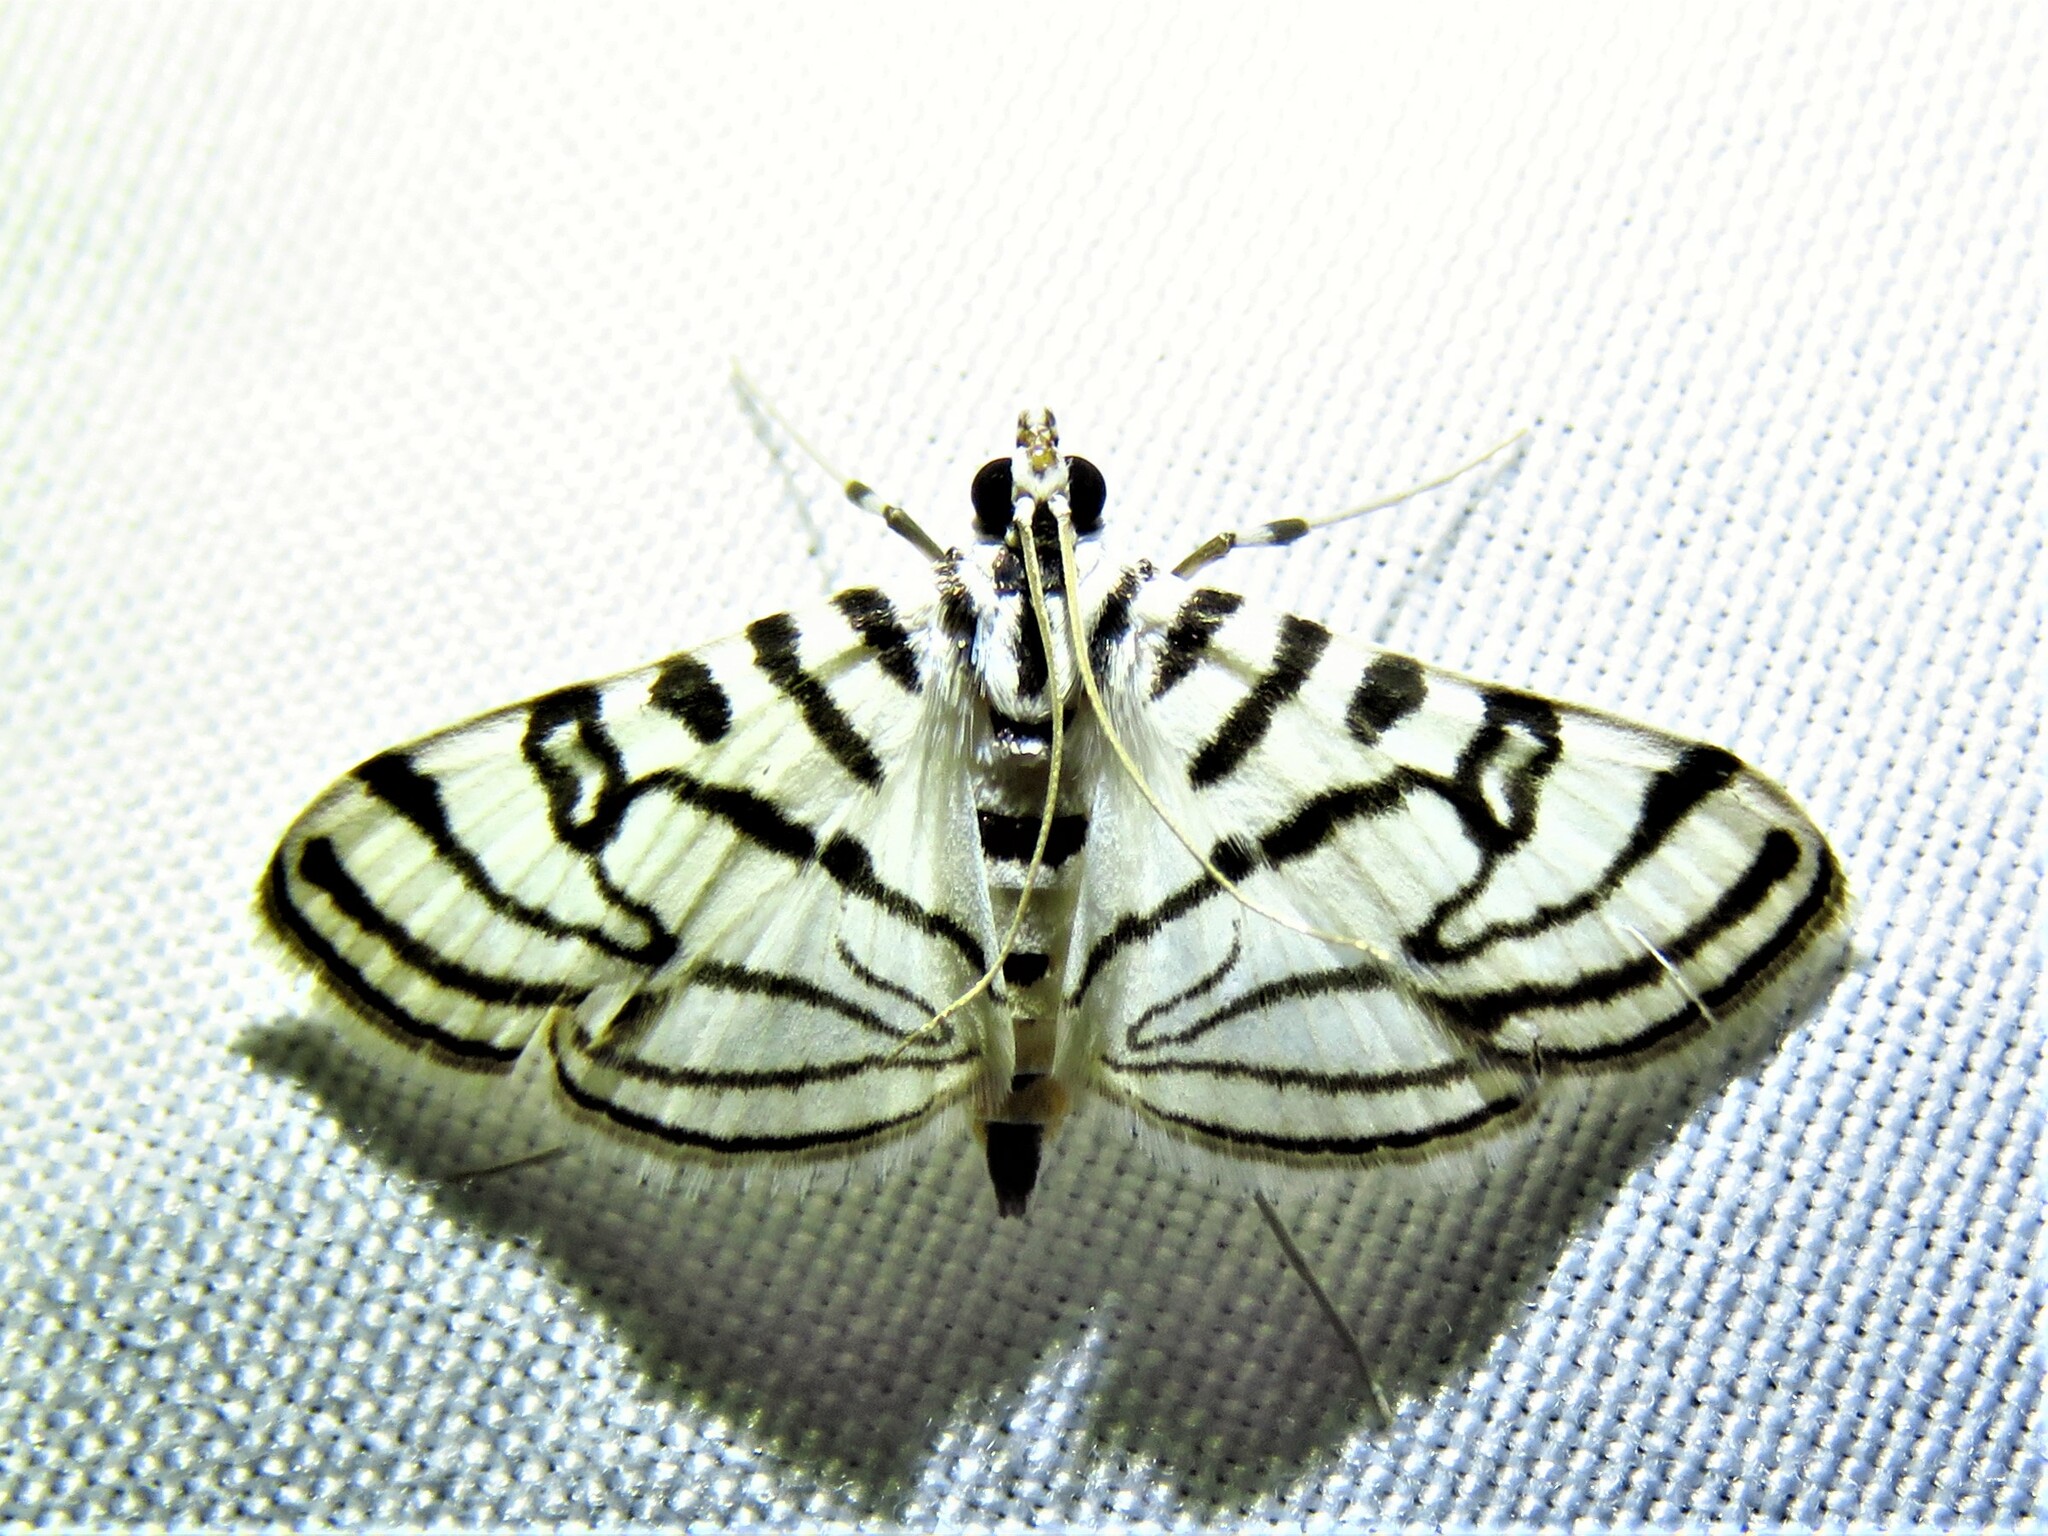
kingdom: Animalia
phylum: Arthropoda
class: Insecta
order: Lepidoptera
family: Crambidae
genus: Conchylodes
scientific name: Conchylodes ovulalis
